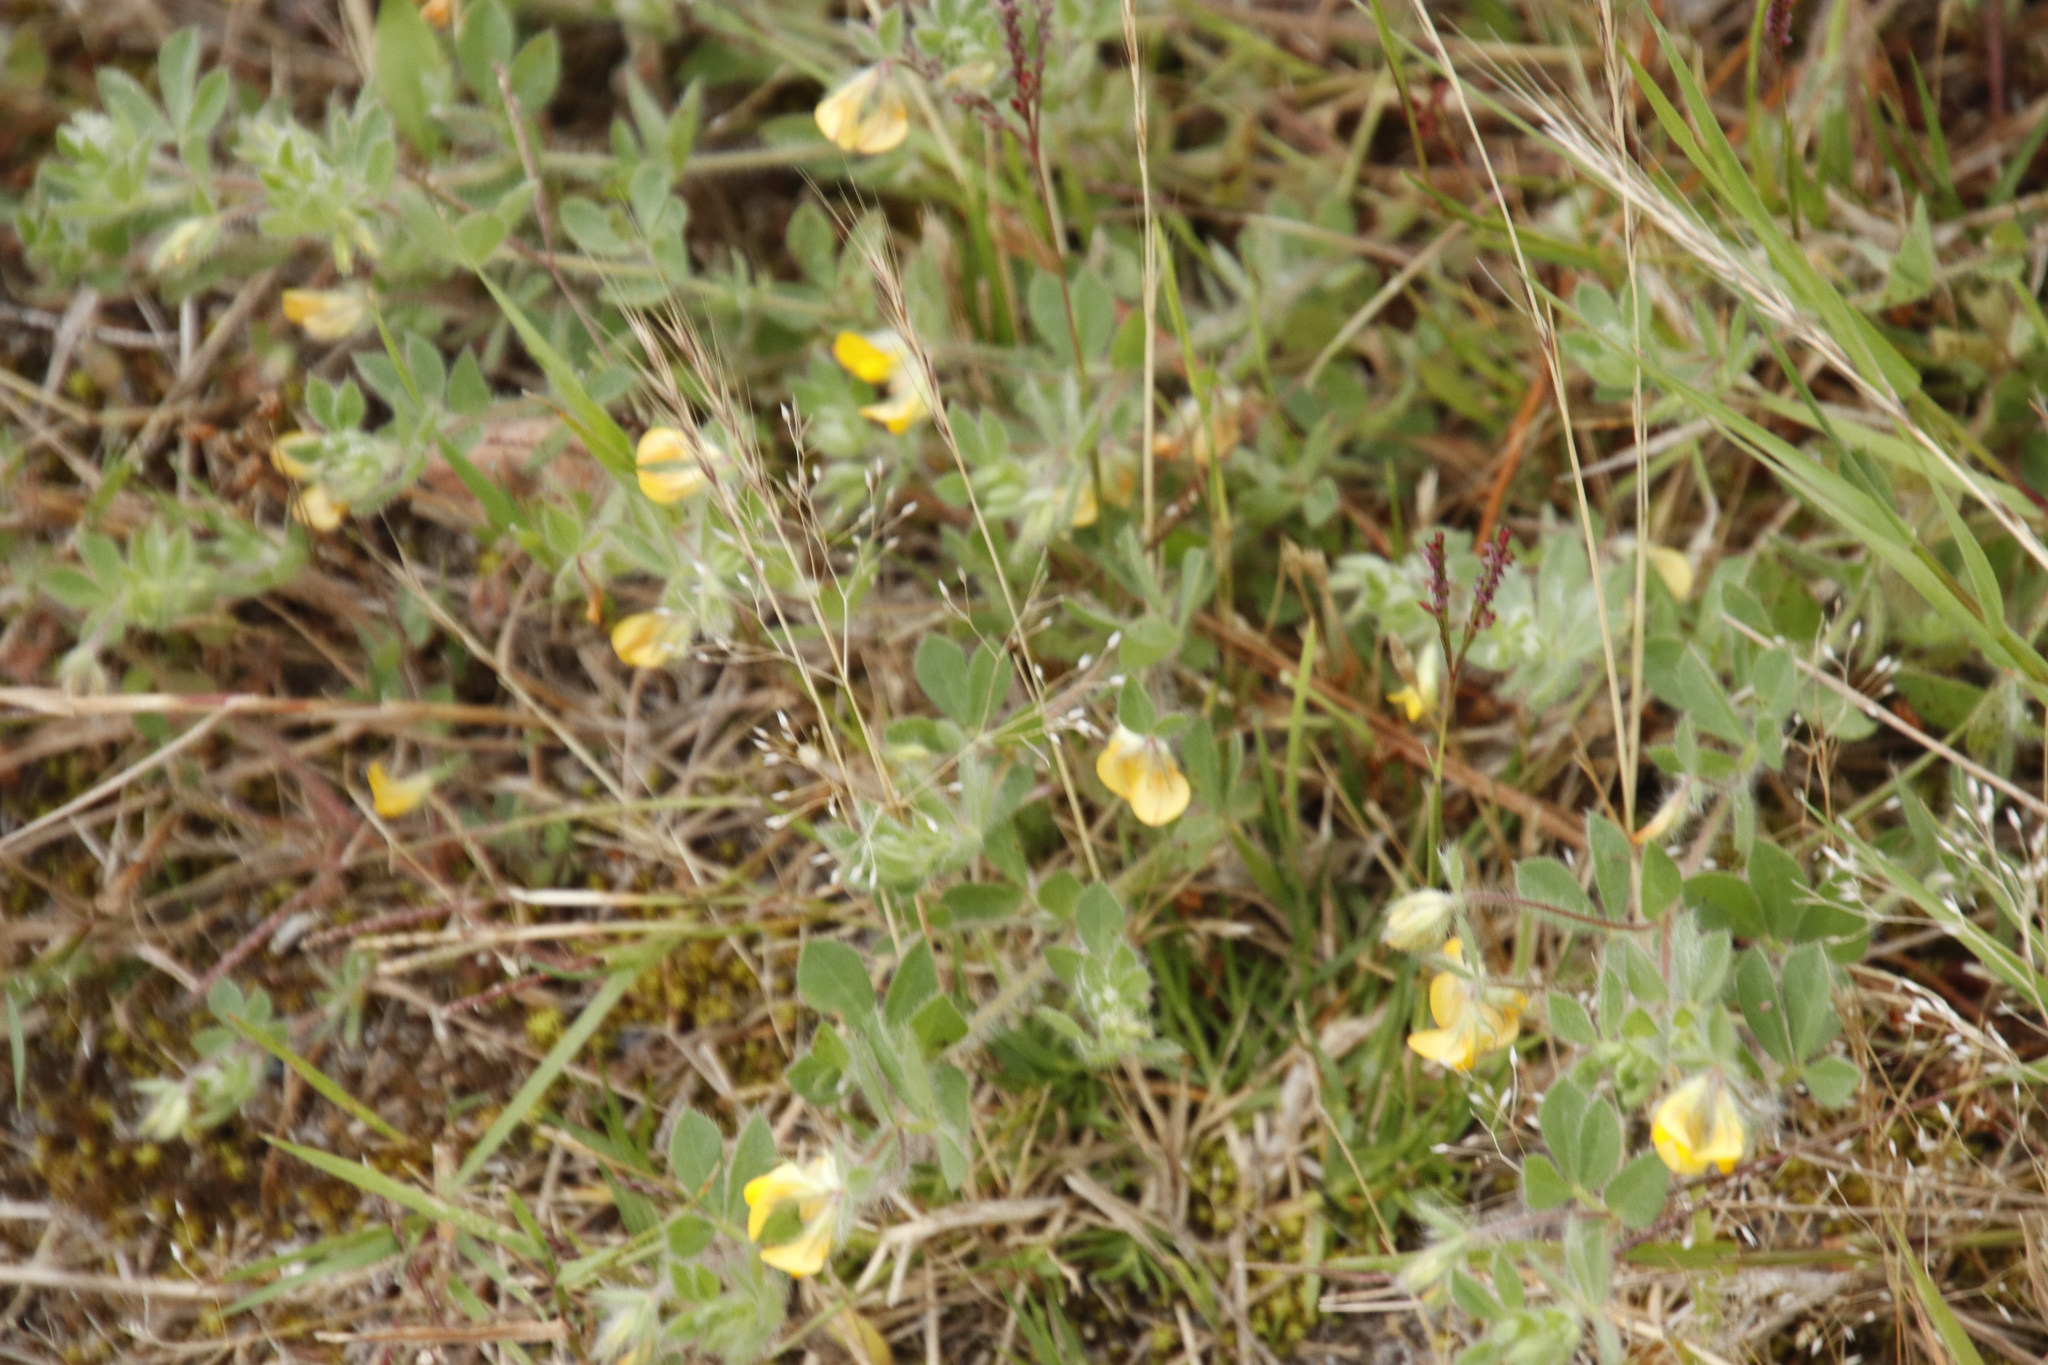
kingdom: Plantae
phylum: Tracheophyta
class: Magnoliopsida
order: Fabales
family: Fabaceae
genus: Lotus
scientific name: Lotus subbiflorus
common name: Hairy bird's-foot trefoil
